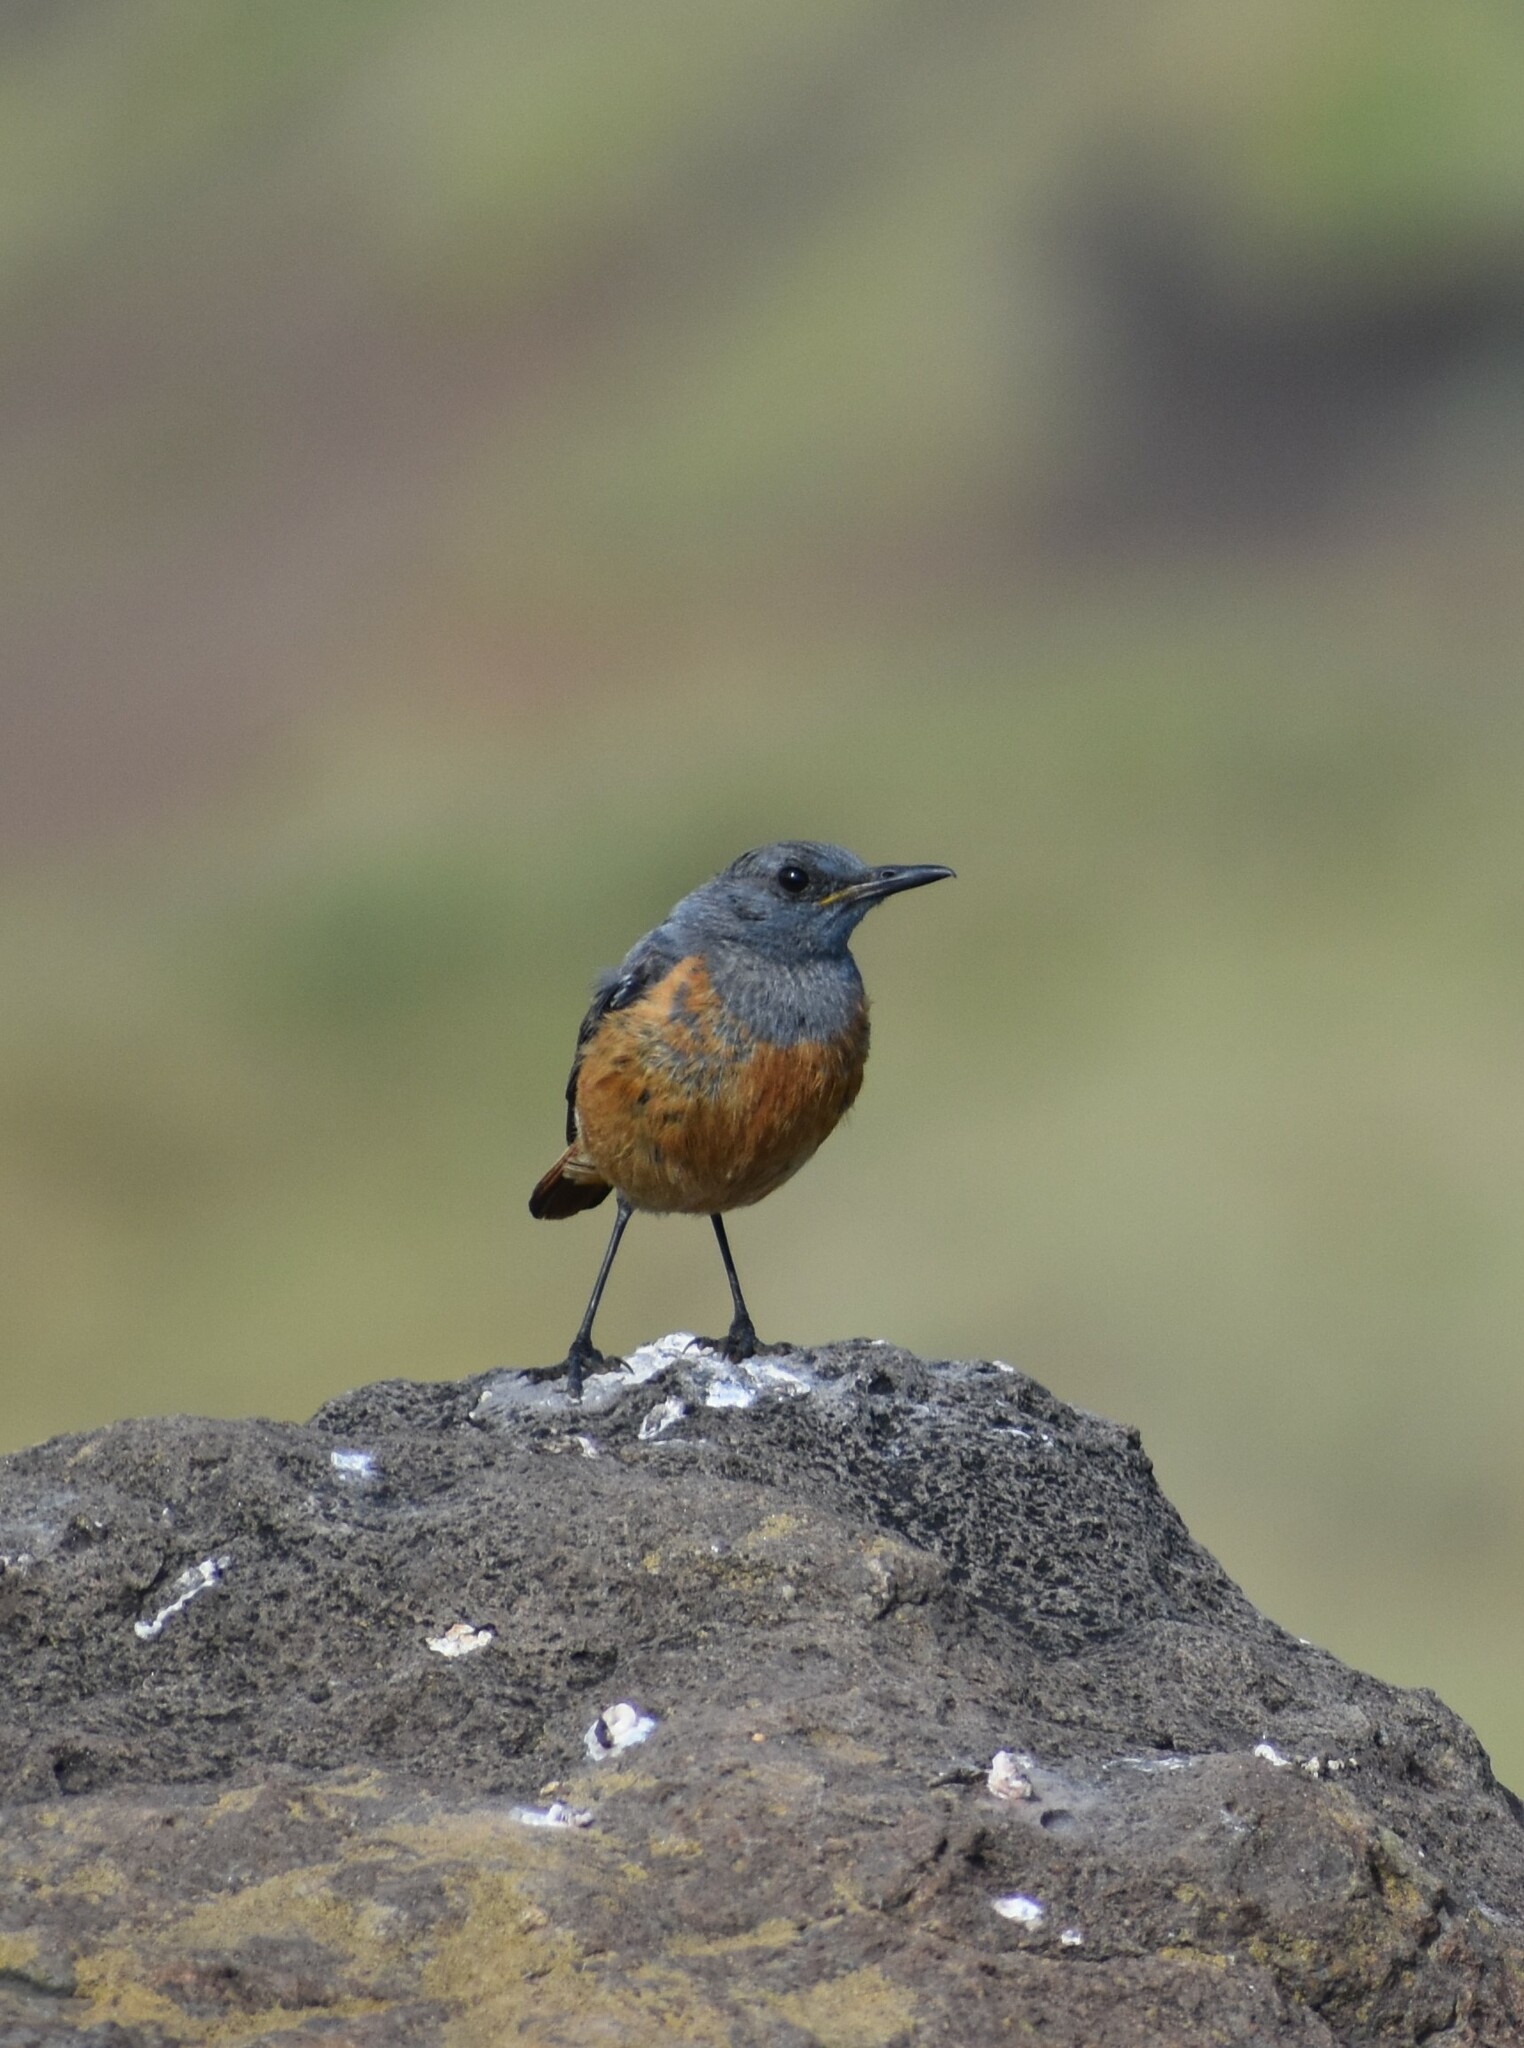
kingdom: Animalia
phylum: Chordata
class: Aves
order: Passeriformes
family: Muscicapidae
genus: Monticola
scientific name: Monticola explorator
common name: Sentinel rock thrush
